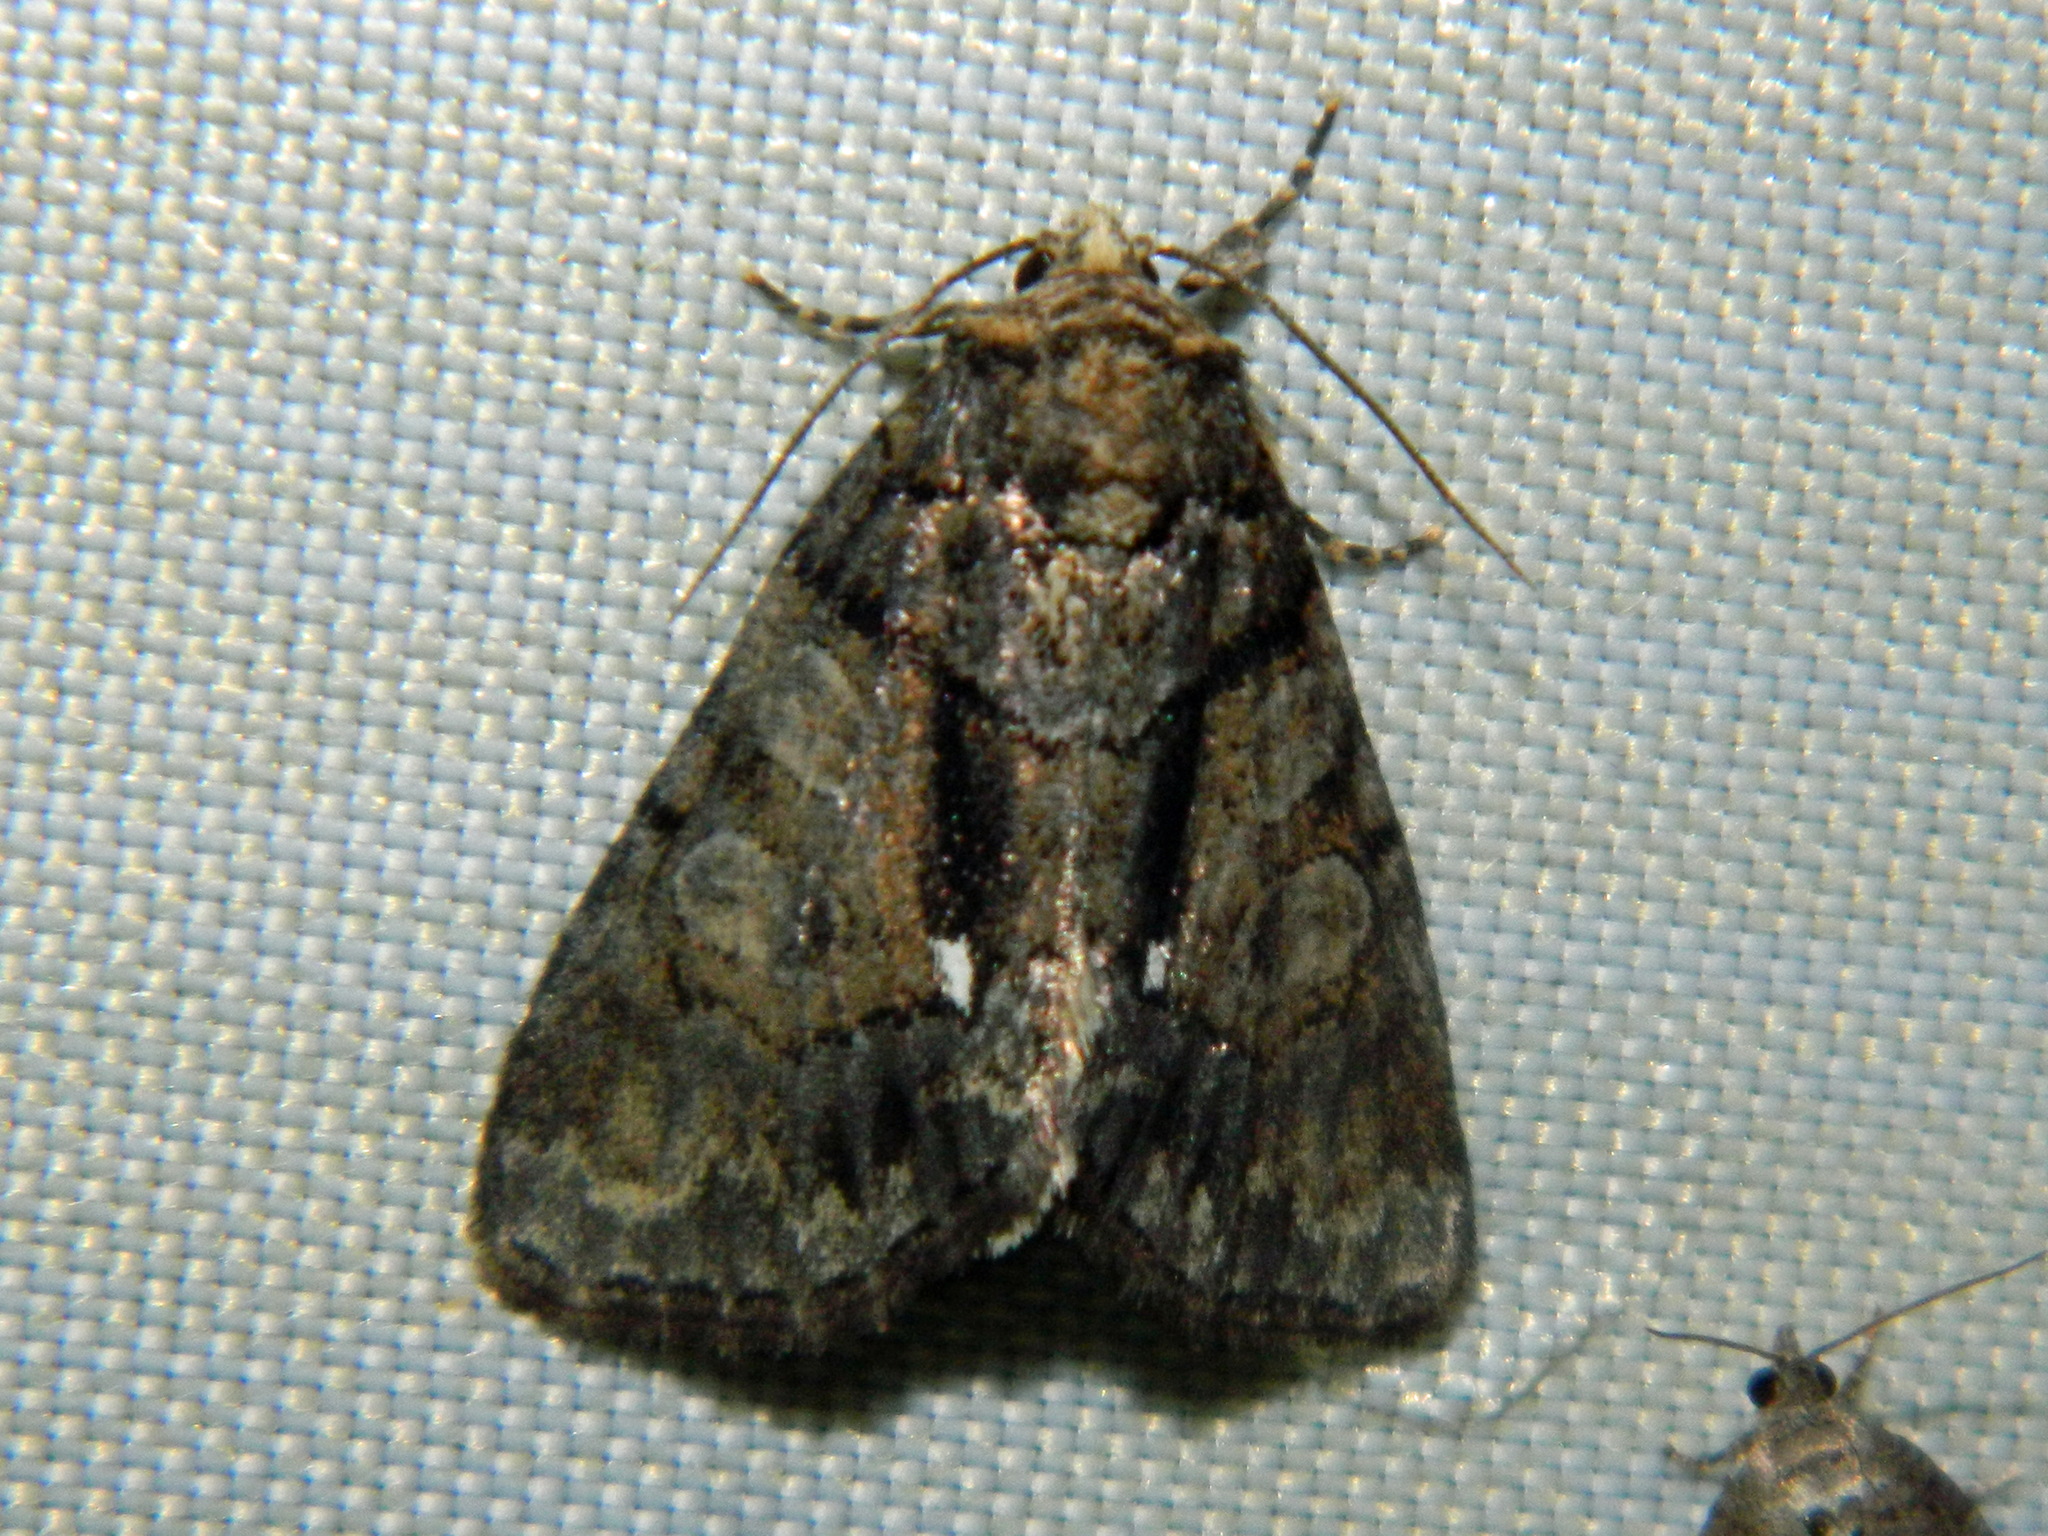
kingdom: Animalia
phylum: Arthropoda
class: Insecta
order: Lepidoptera
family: Noctuidae
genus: Chytonix
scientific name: Chytonix palliatricula
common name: Cloaked marvel
